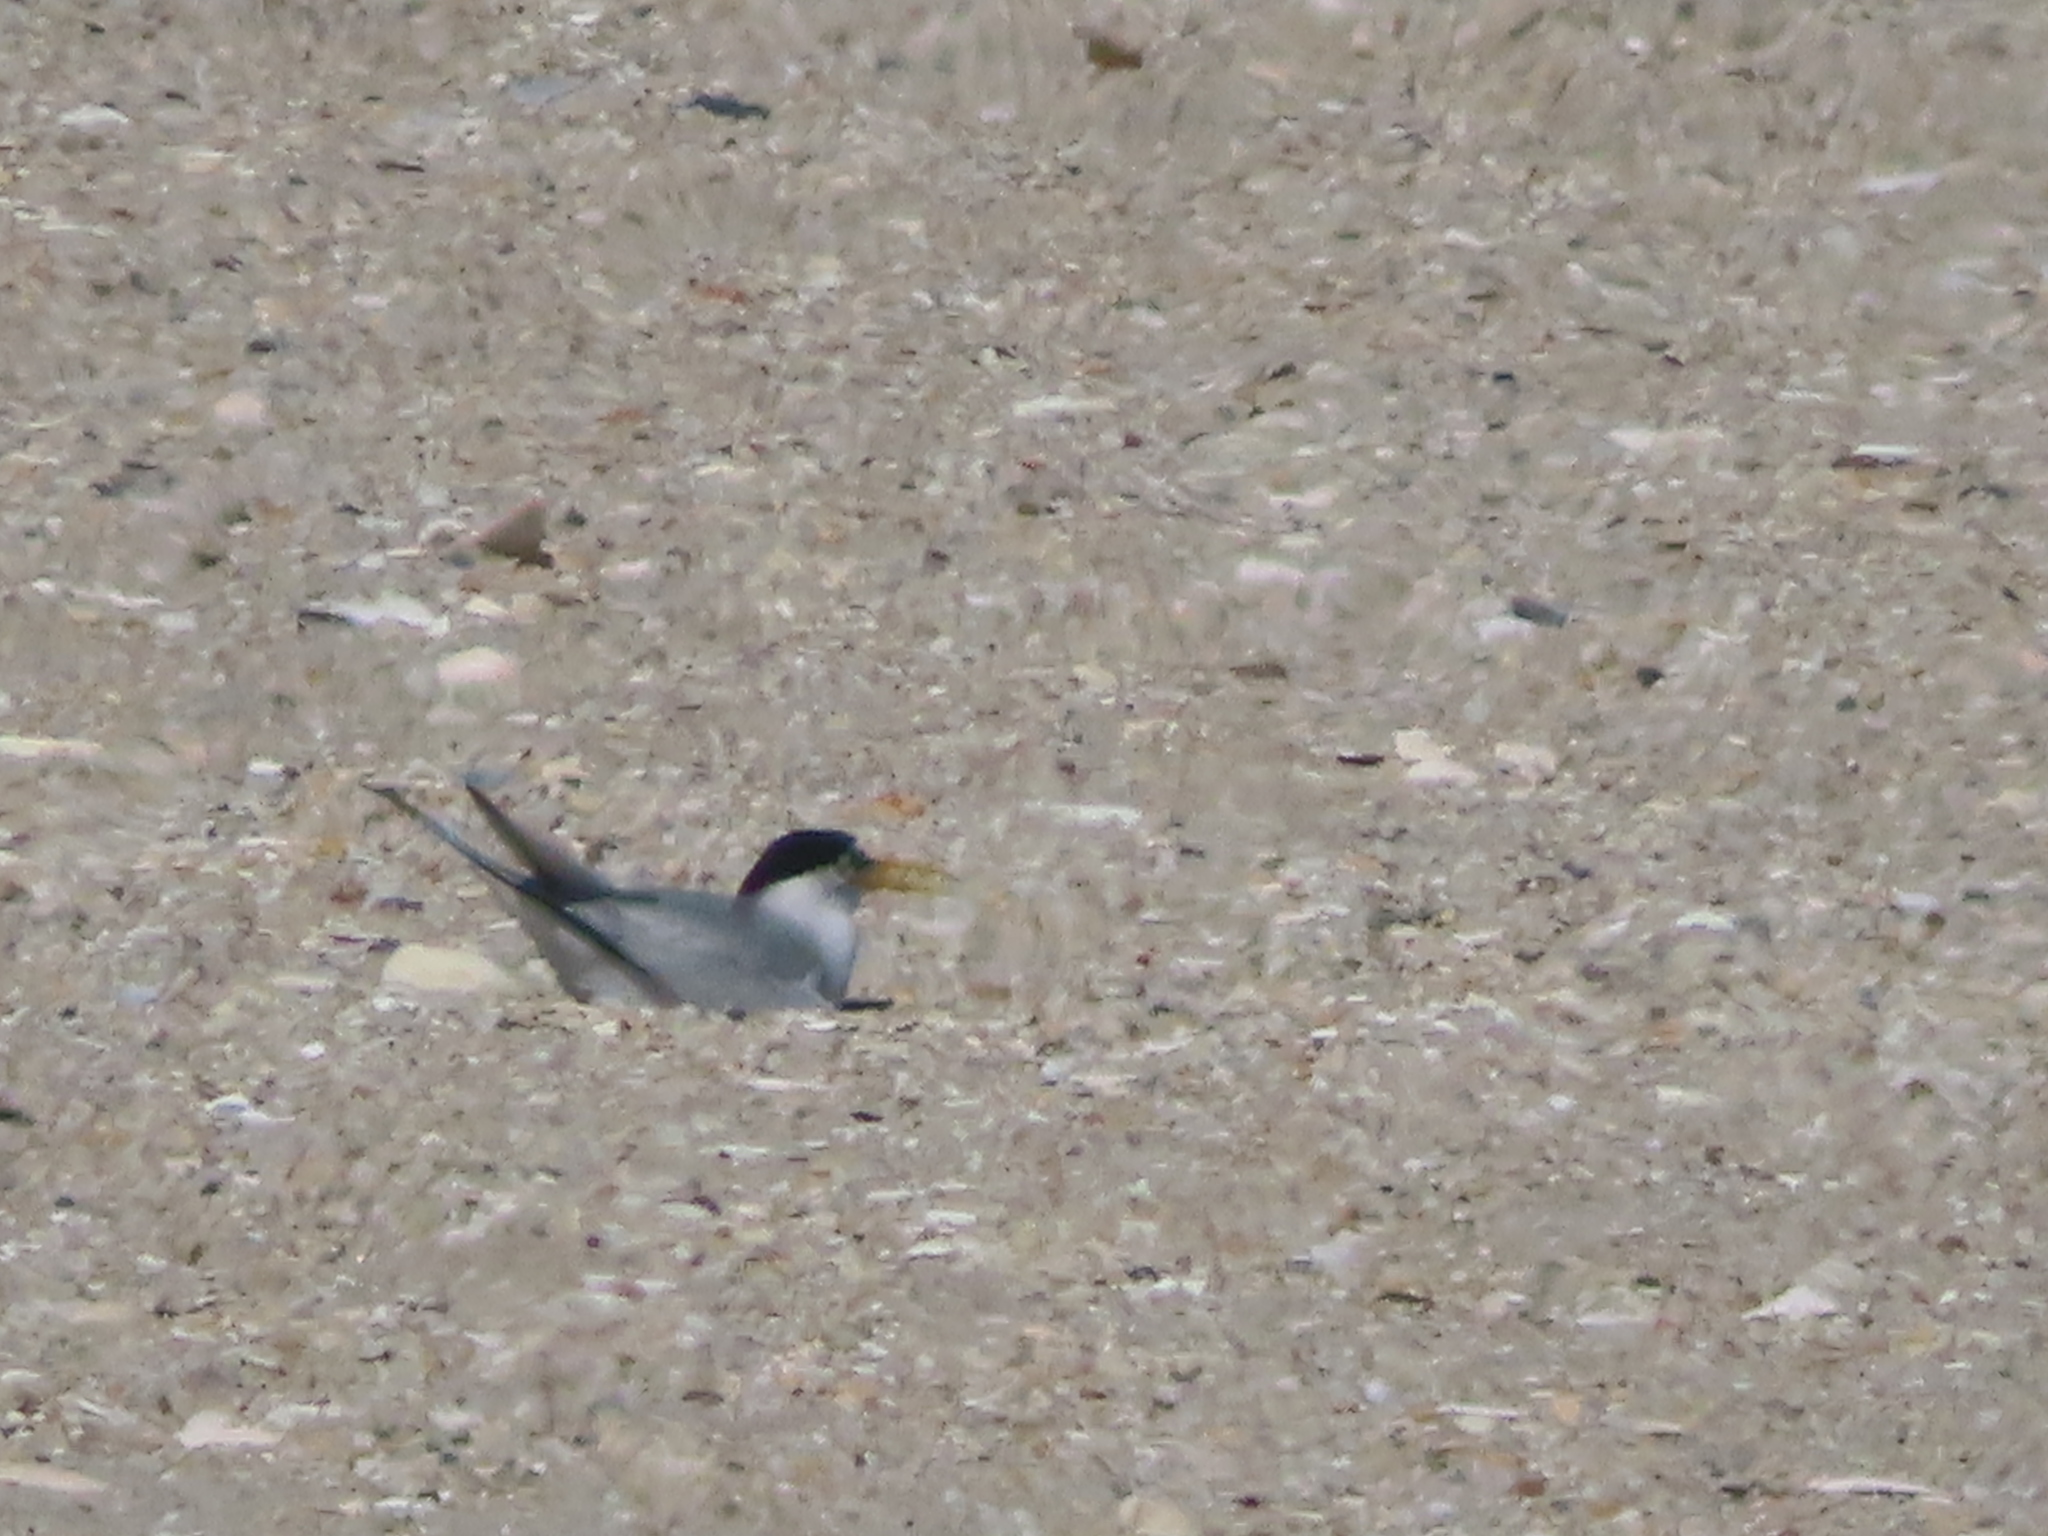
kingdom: Animalia
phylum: Chordata
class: Aves
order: Charadriiformes
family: Laridae
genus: Sternula
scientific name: Sternula antillarum
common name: Least tern
